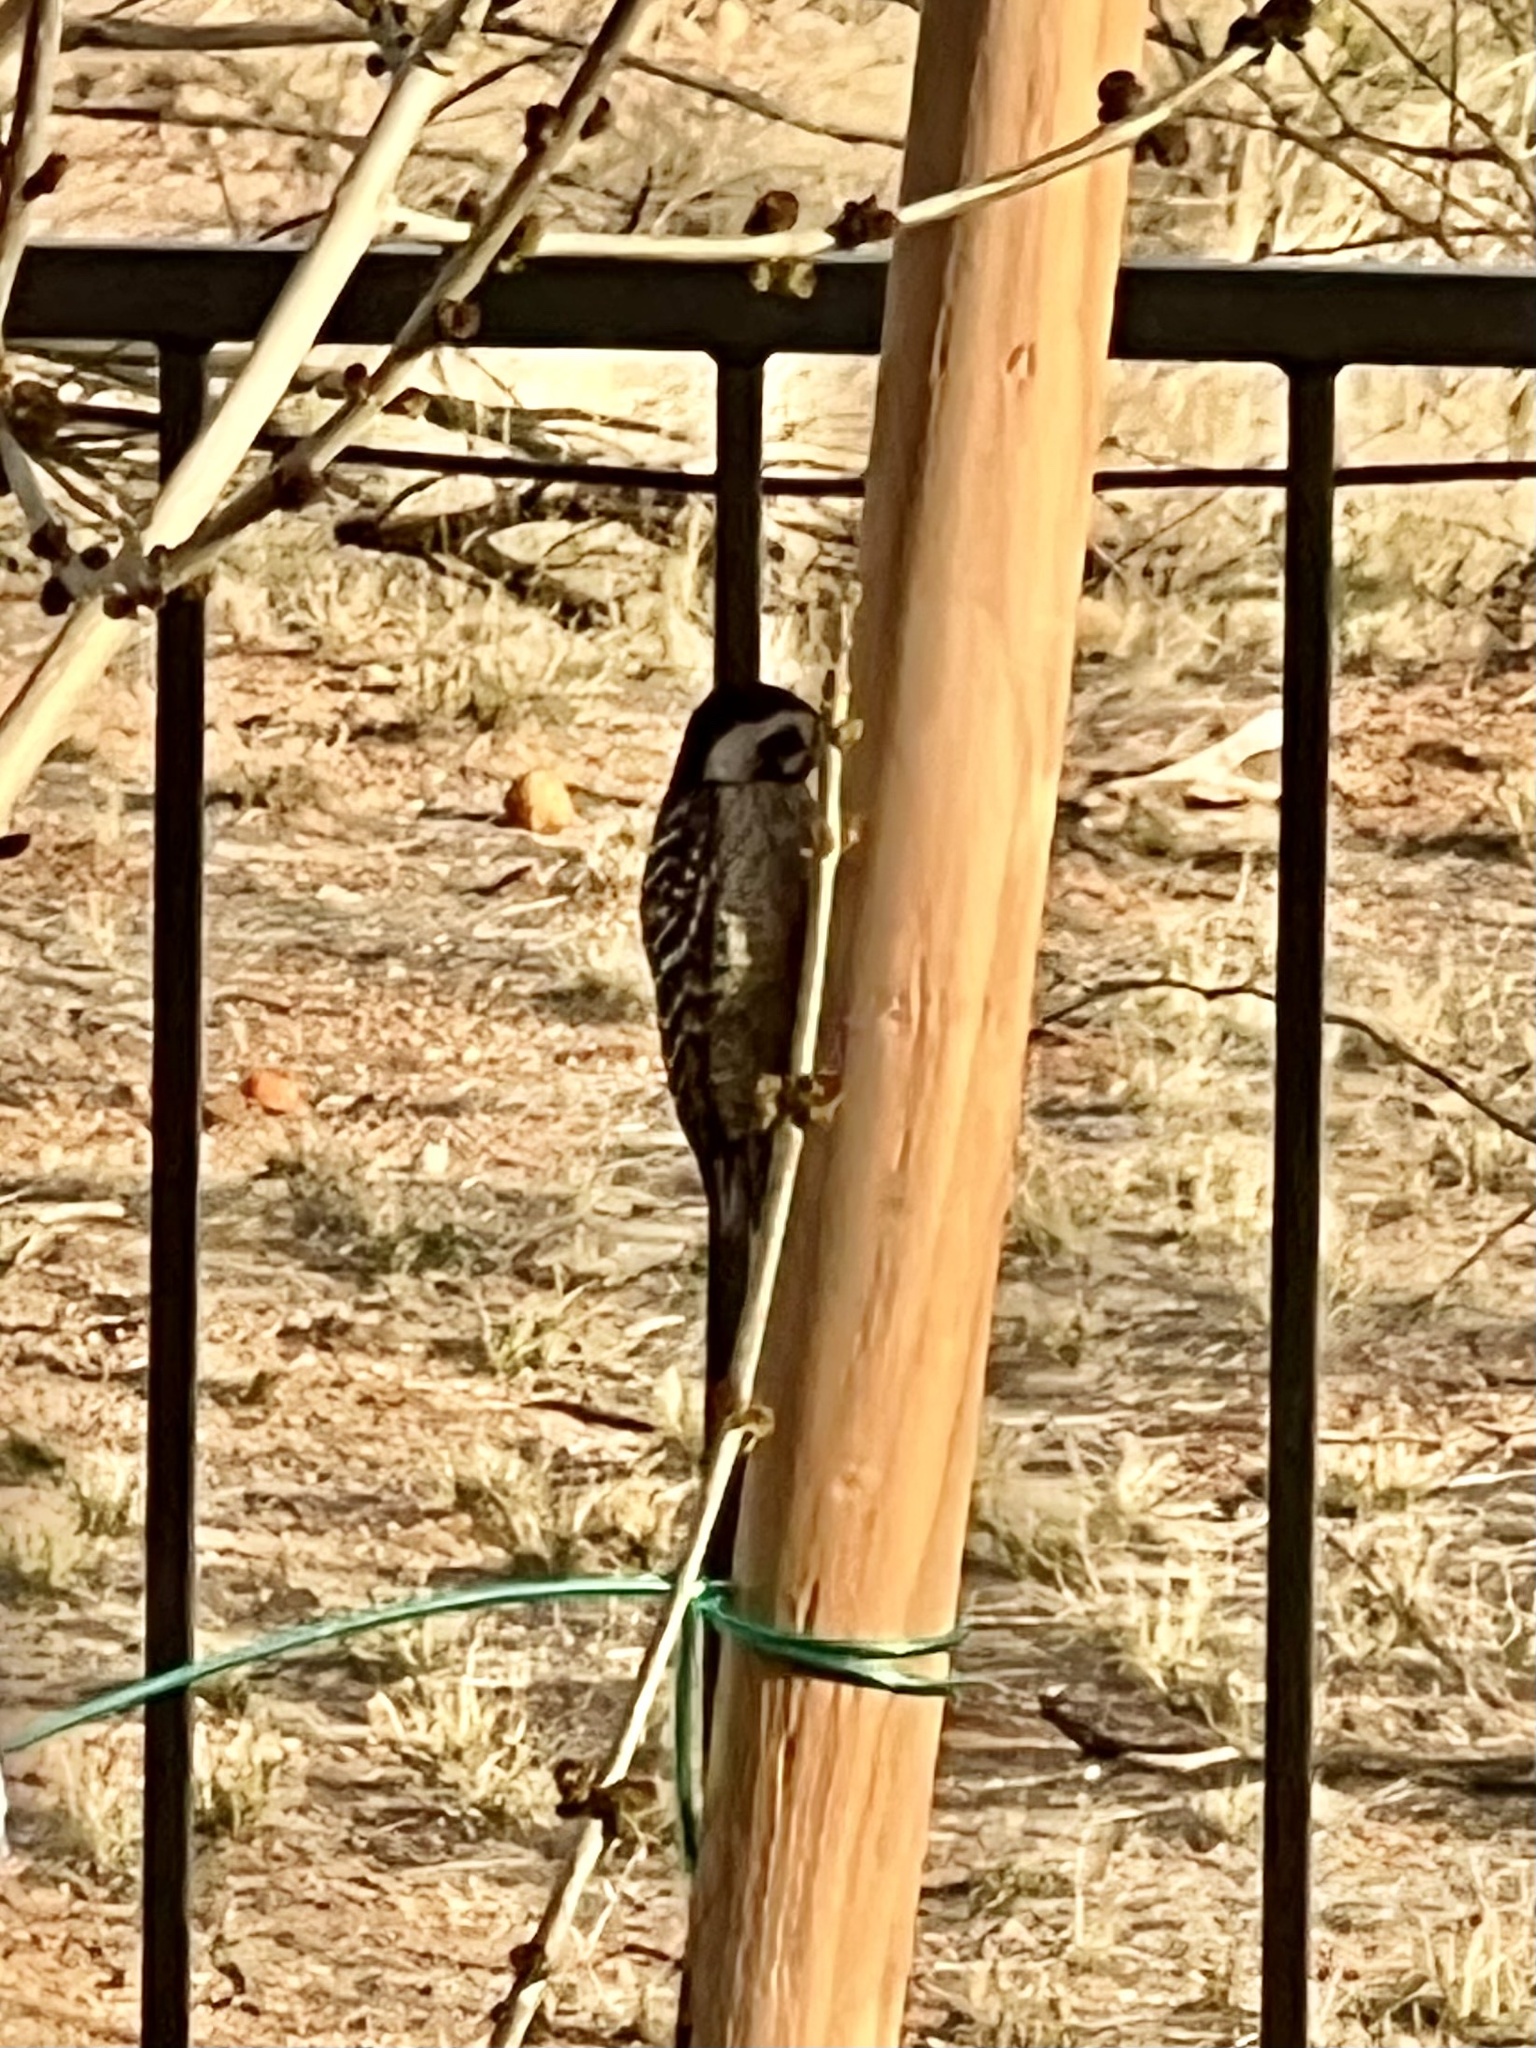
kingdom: Animalia
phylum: Chordata
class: Aves
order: Piciformes
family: Picidae
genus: Dryobates
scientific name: Dryobates scalaris
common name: Ladder-backed woodpecker
